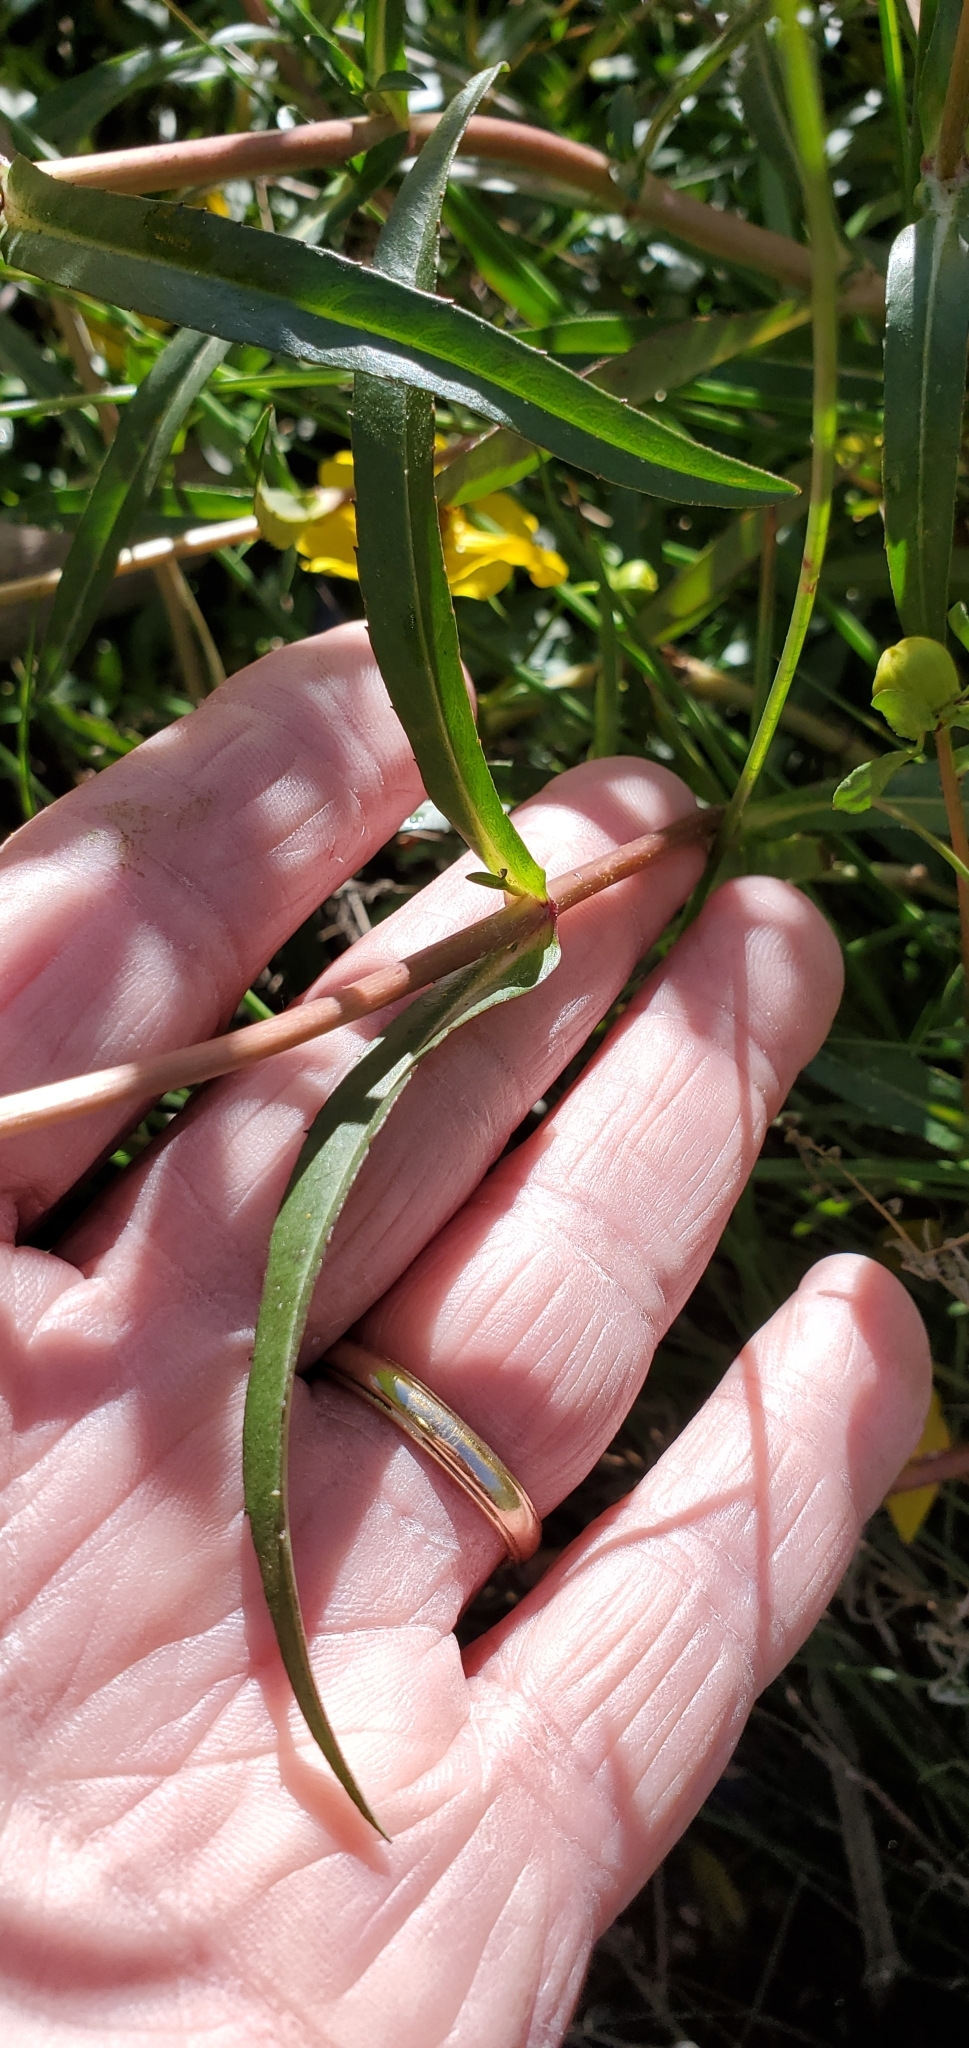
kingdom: Plantae
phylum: Tracheophyta
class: Magnoliopsida
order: Asterales
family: Asteraceae
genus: Bidens
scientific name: Bidens laevis
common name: Larger bur-marigold
